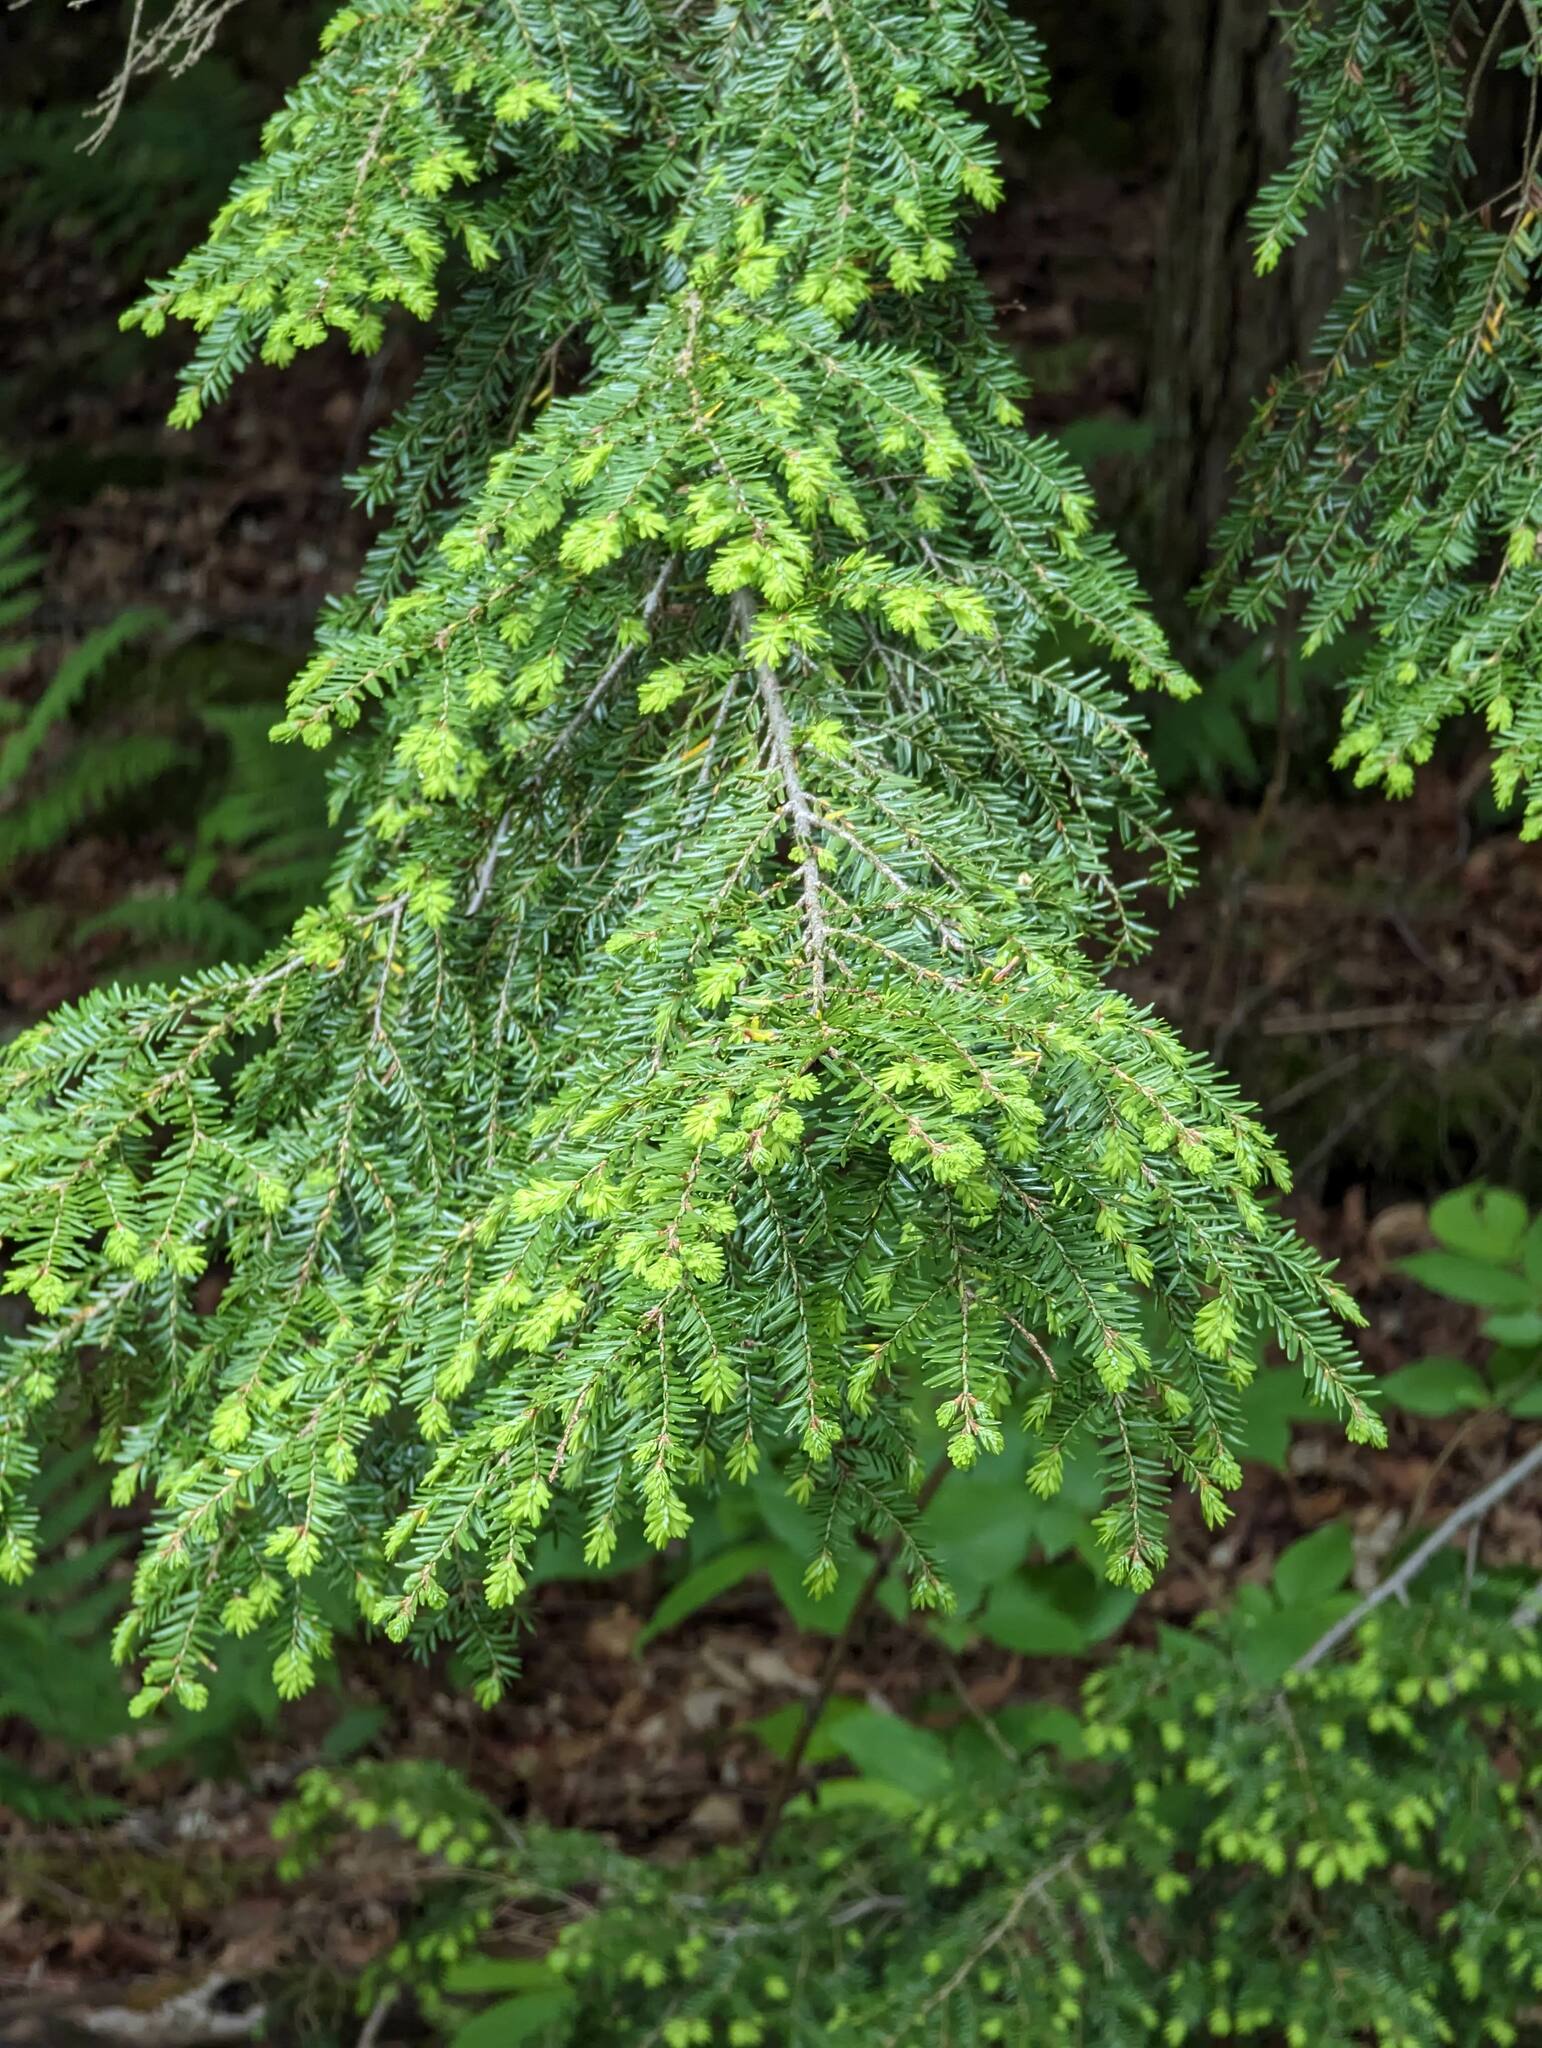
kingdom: Plantae
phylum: Tracheophyta
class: Pinopsida
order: Pinales
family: Pinaceae
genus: Tsuga
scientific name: Tsuga canadensis
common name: Eastern hemlock
